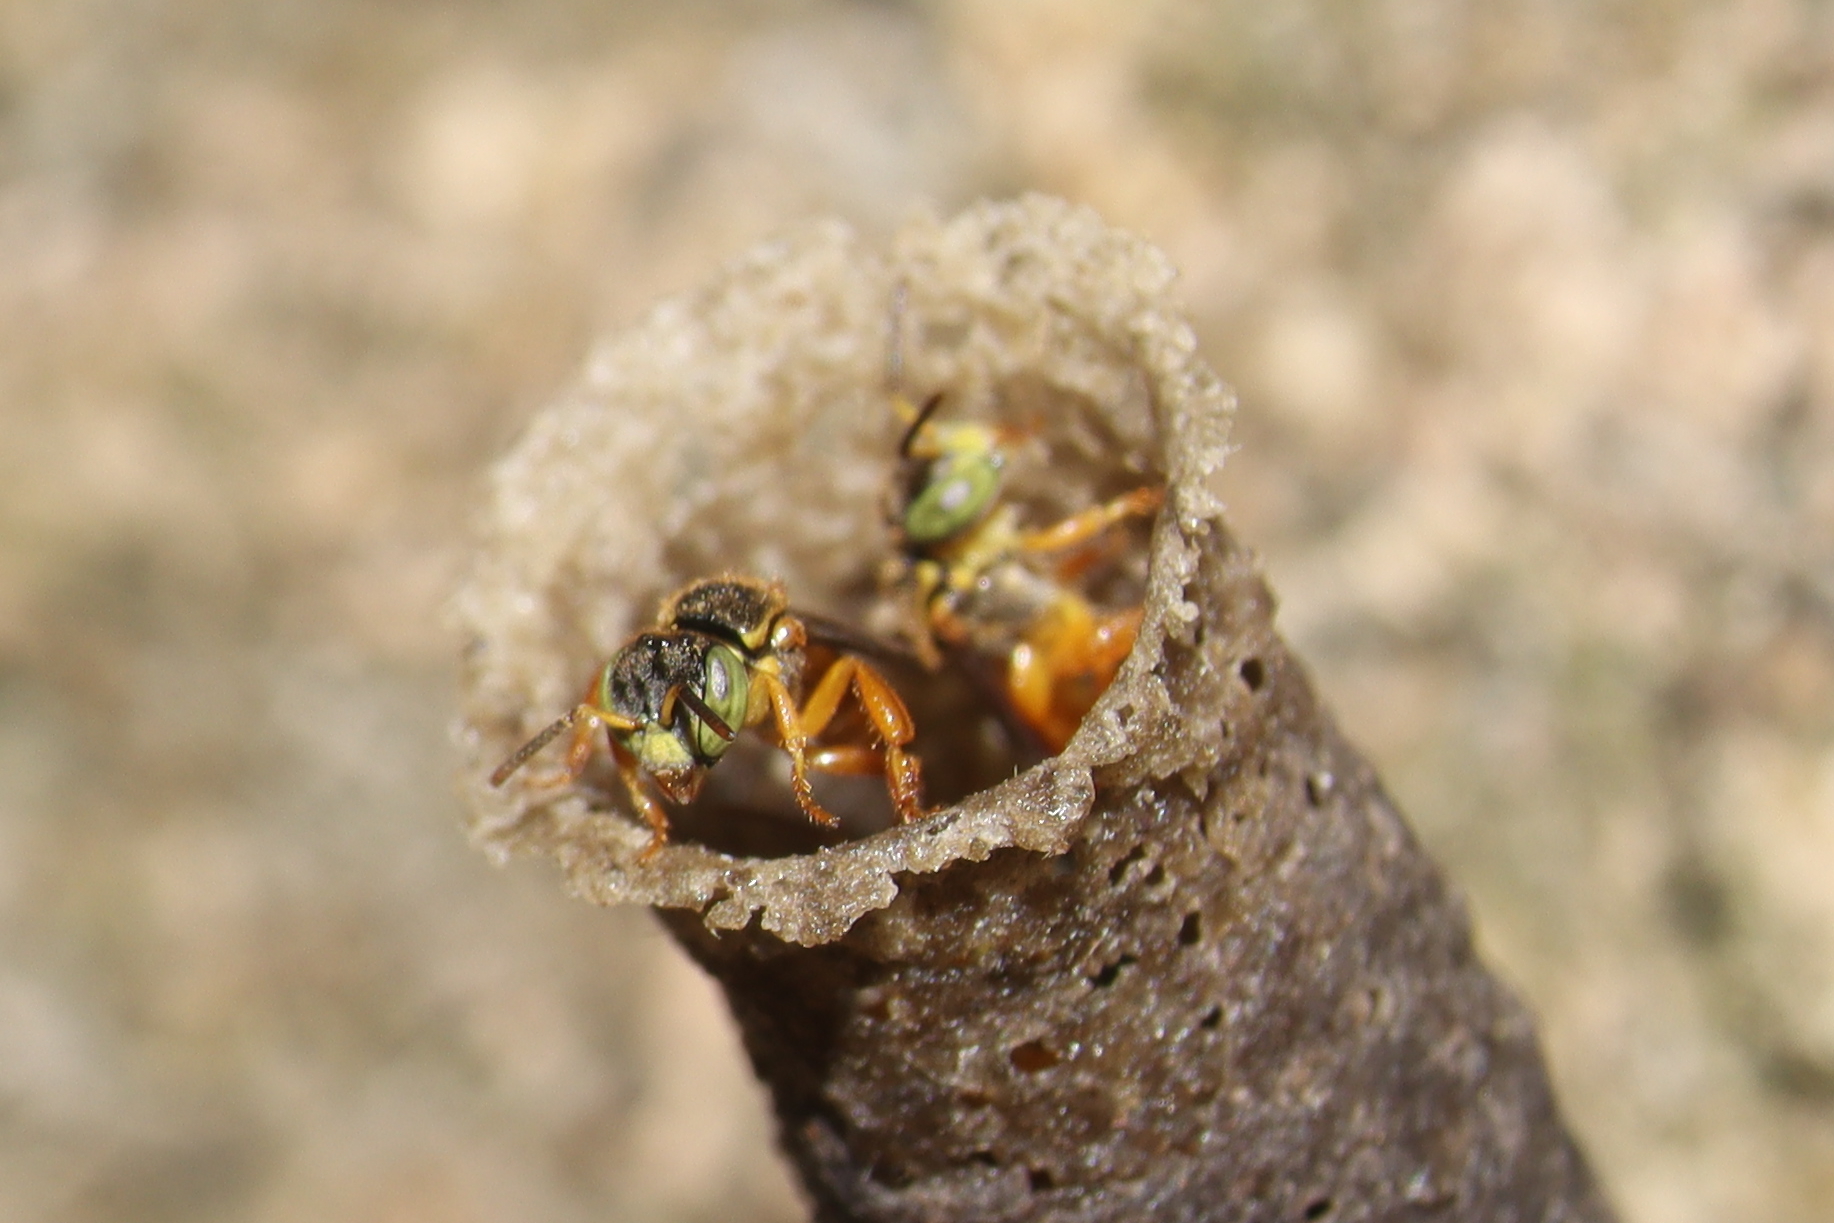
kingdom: Animalia
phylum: Arthropoda
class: Insecta
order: Hymenoptera
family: Apidae
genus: Tetragonisca
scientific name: Tetragonisca angustula
